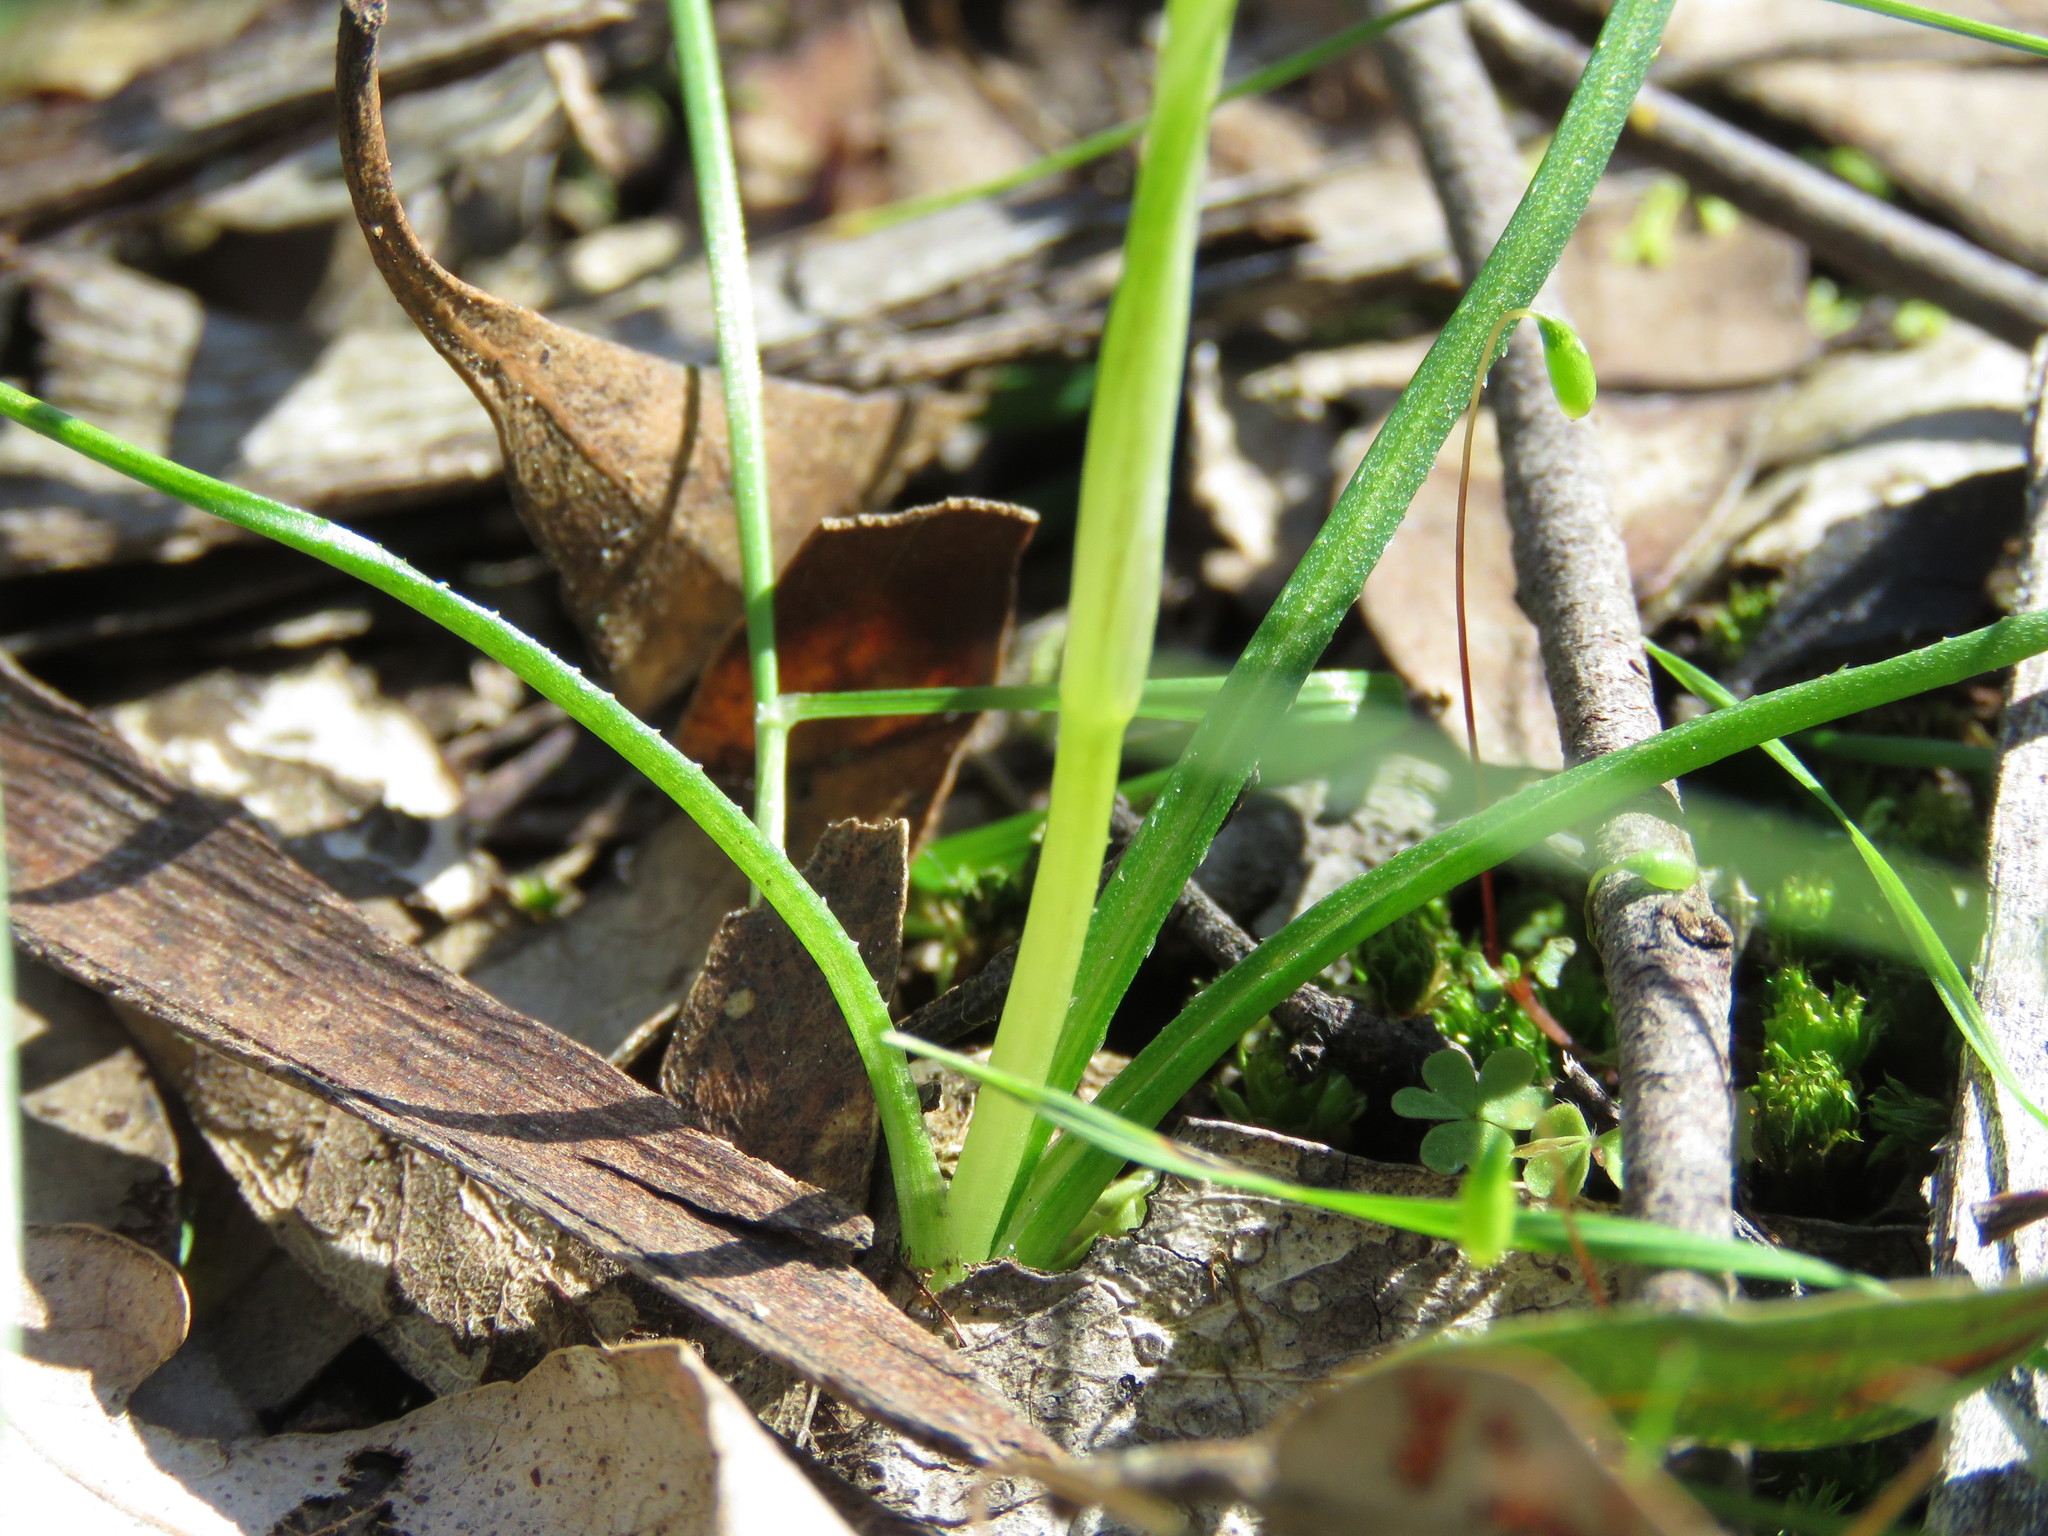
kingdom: Plantae
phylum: Tracheophyta
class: Liliopsida
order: Asparagales
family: Hypoxidaceae
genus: Pauridia
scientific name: Pauridia vaginata
